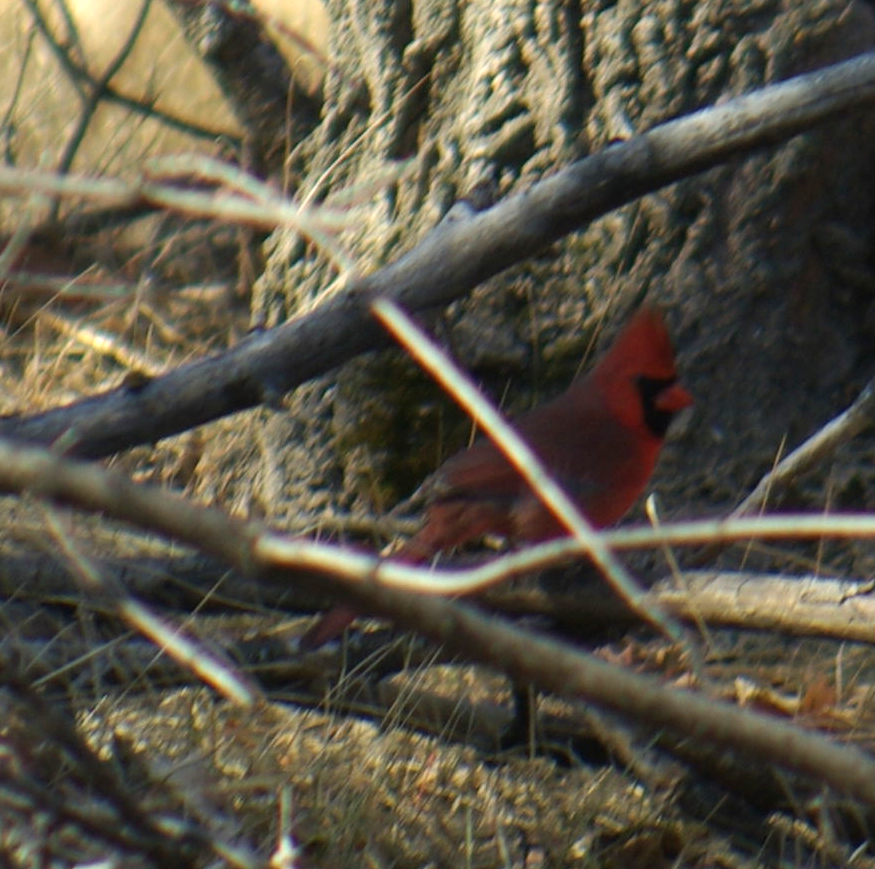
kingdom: Animalia
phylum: Chordata
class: Aves
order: Passeriformes
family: Cardinalidae
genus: Cardinalis
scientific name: Cardinalis cardinalis
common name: Northern cardinal
